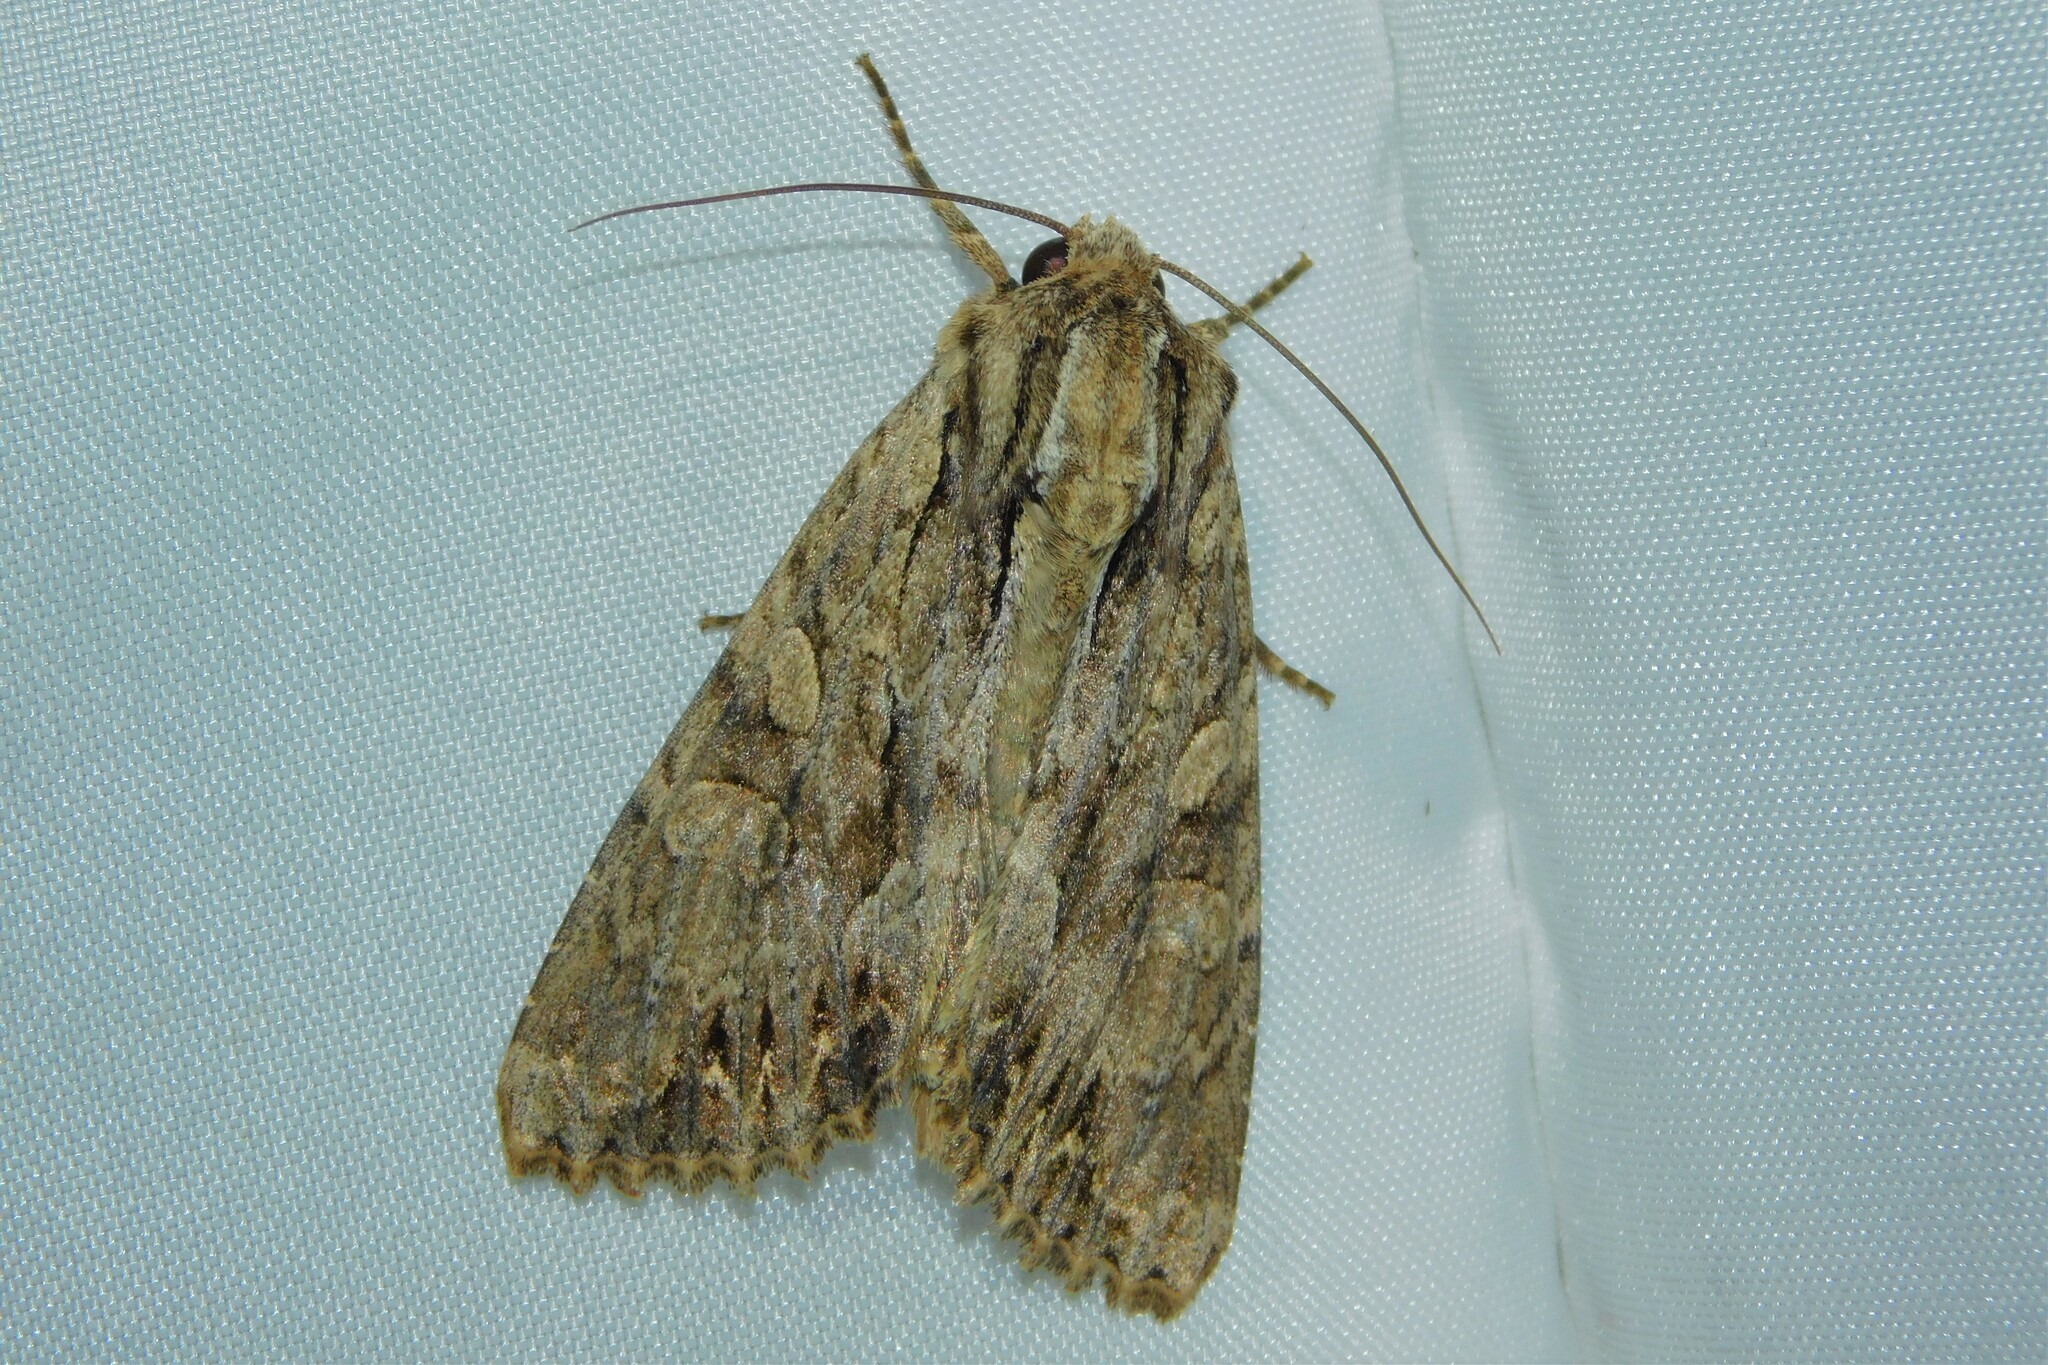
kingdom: Animalia
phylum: Arthropoda
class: Insecta
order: Lepidoptera
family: Noctuidae
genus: Apamea
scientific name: Apamea monoglypha
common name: Dark arches
